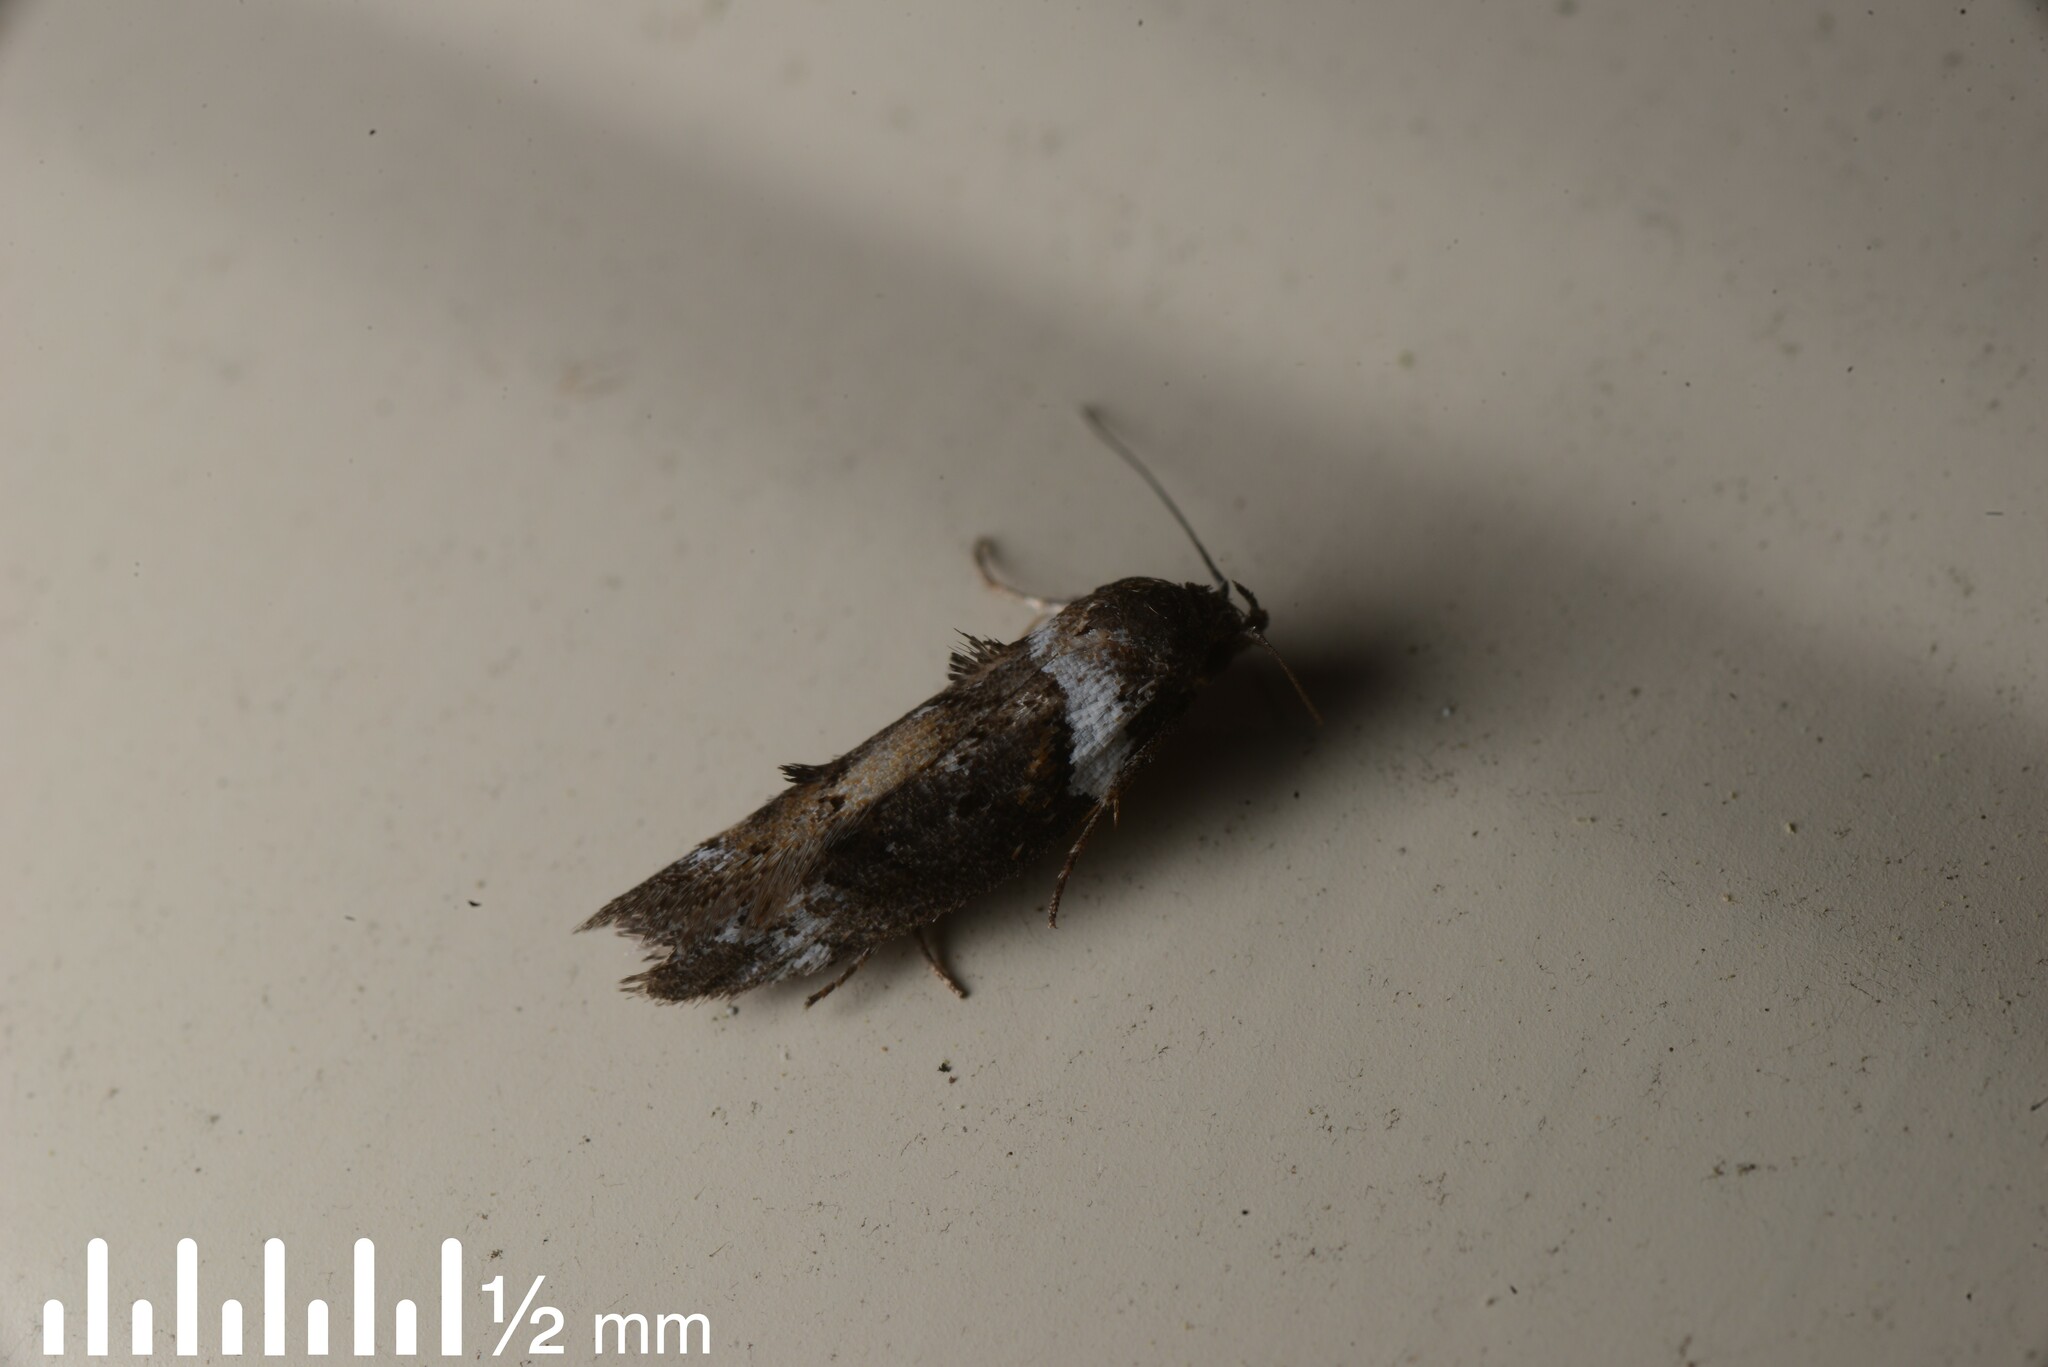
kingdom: Animalia
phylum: Arthropoda
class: Insecta
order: Lepidoptera
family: Oecophoridae
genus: Trachypepla
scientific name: Trachypepla conspicuella
